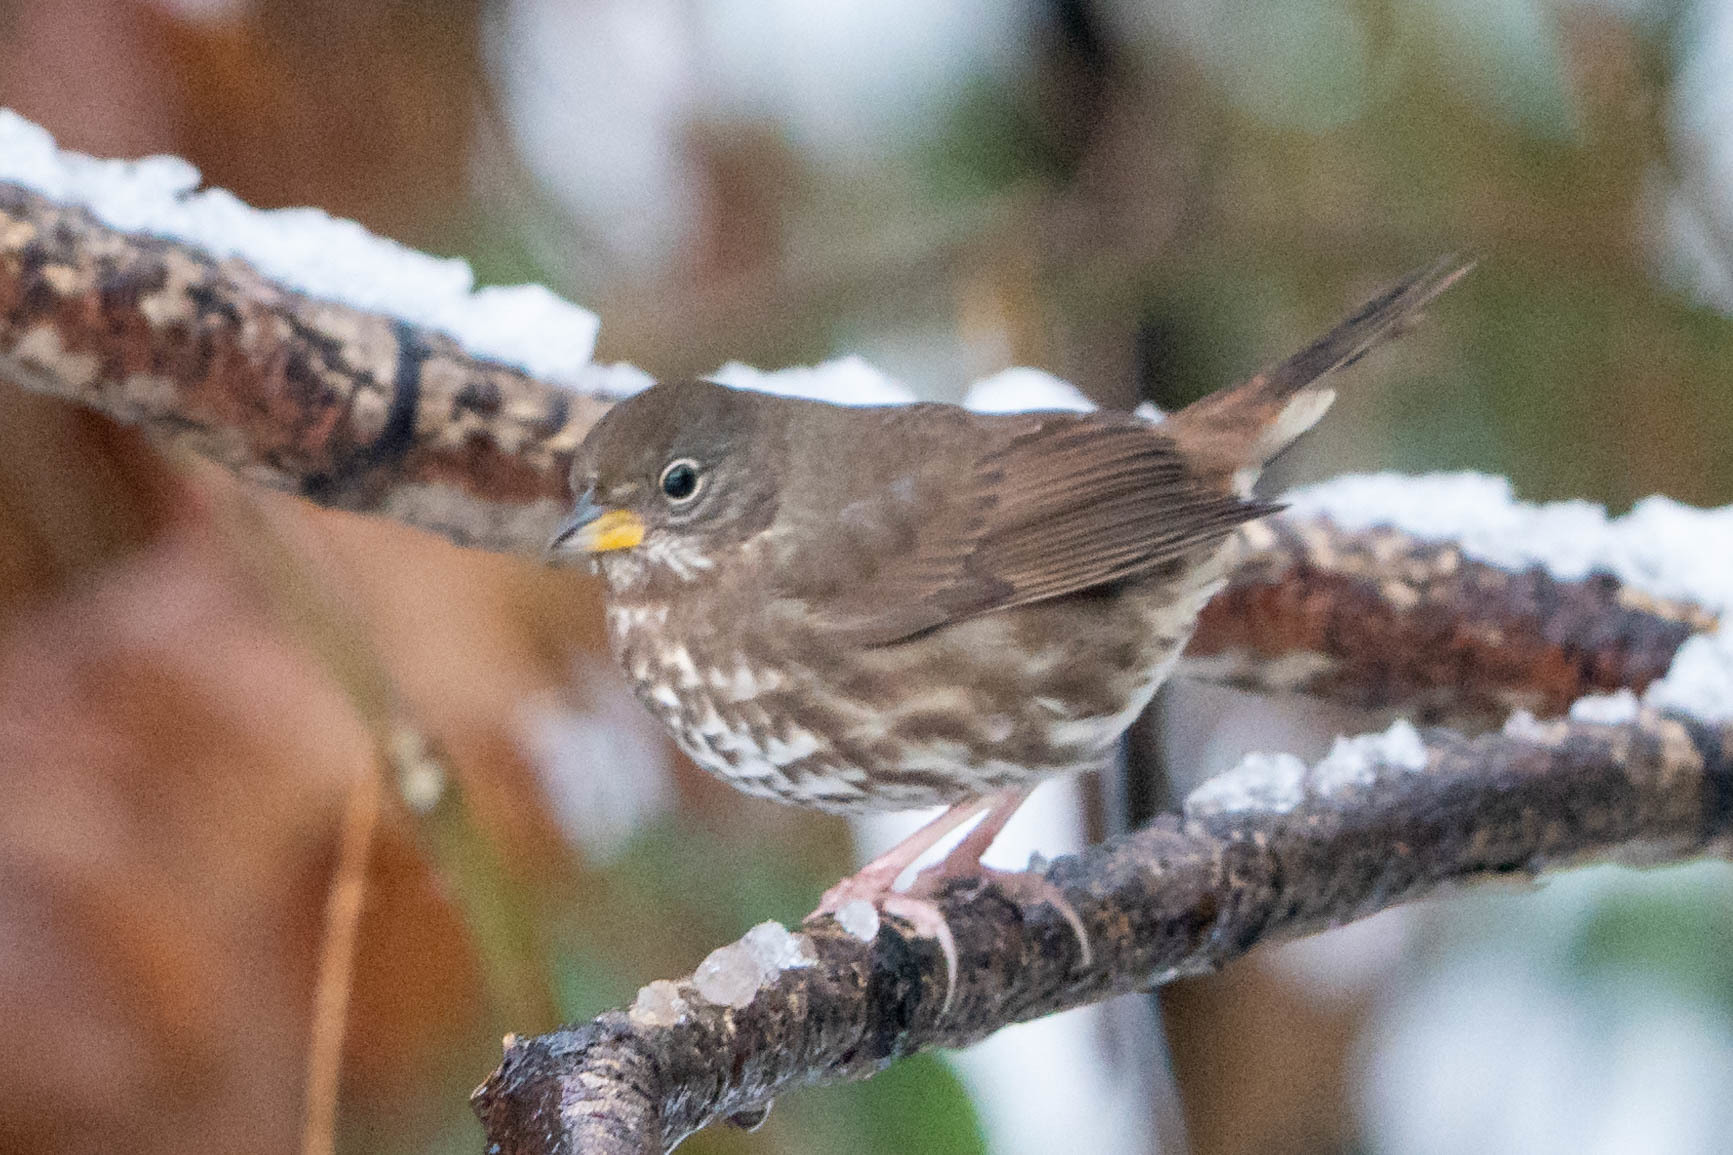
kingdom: Animalia
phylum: Chordata
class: Aves
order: Passeriformes
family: Passerellidae
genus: Passerella
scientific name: Passerella iliaca
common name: Fox sparrow
